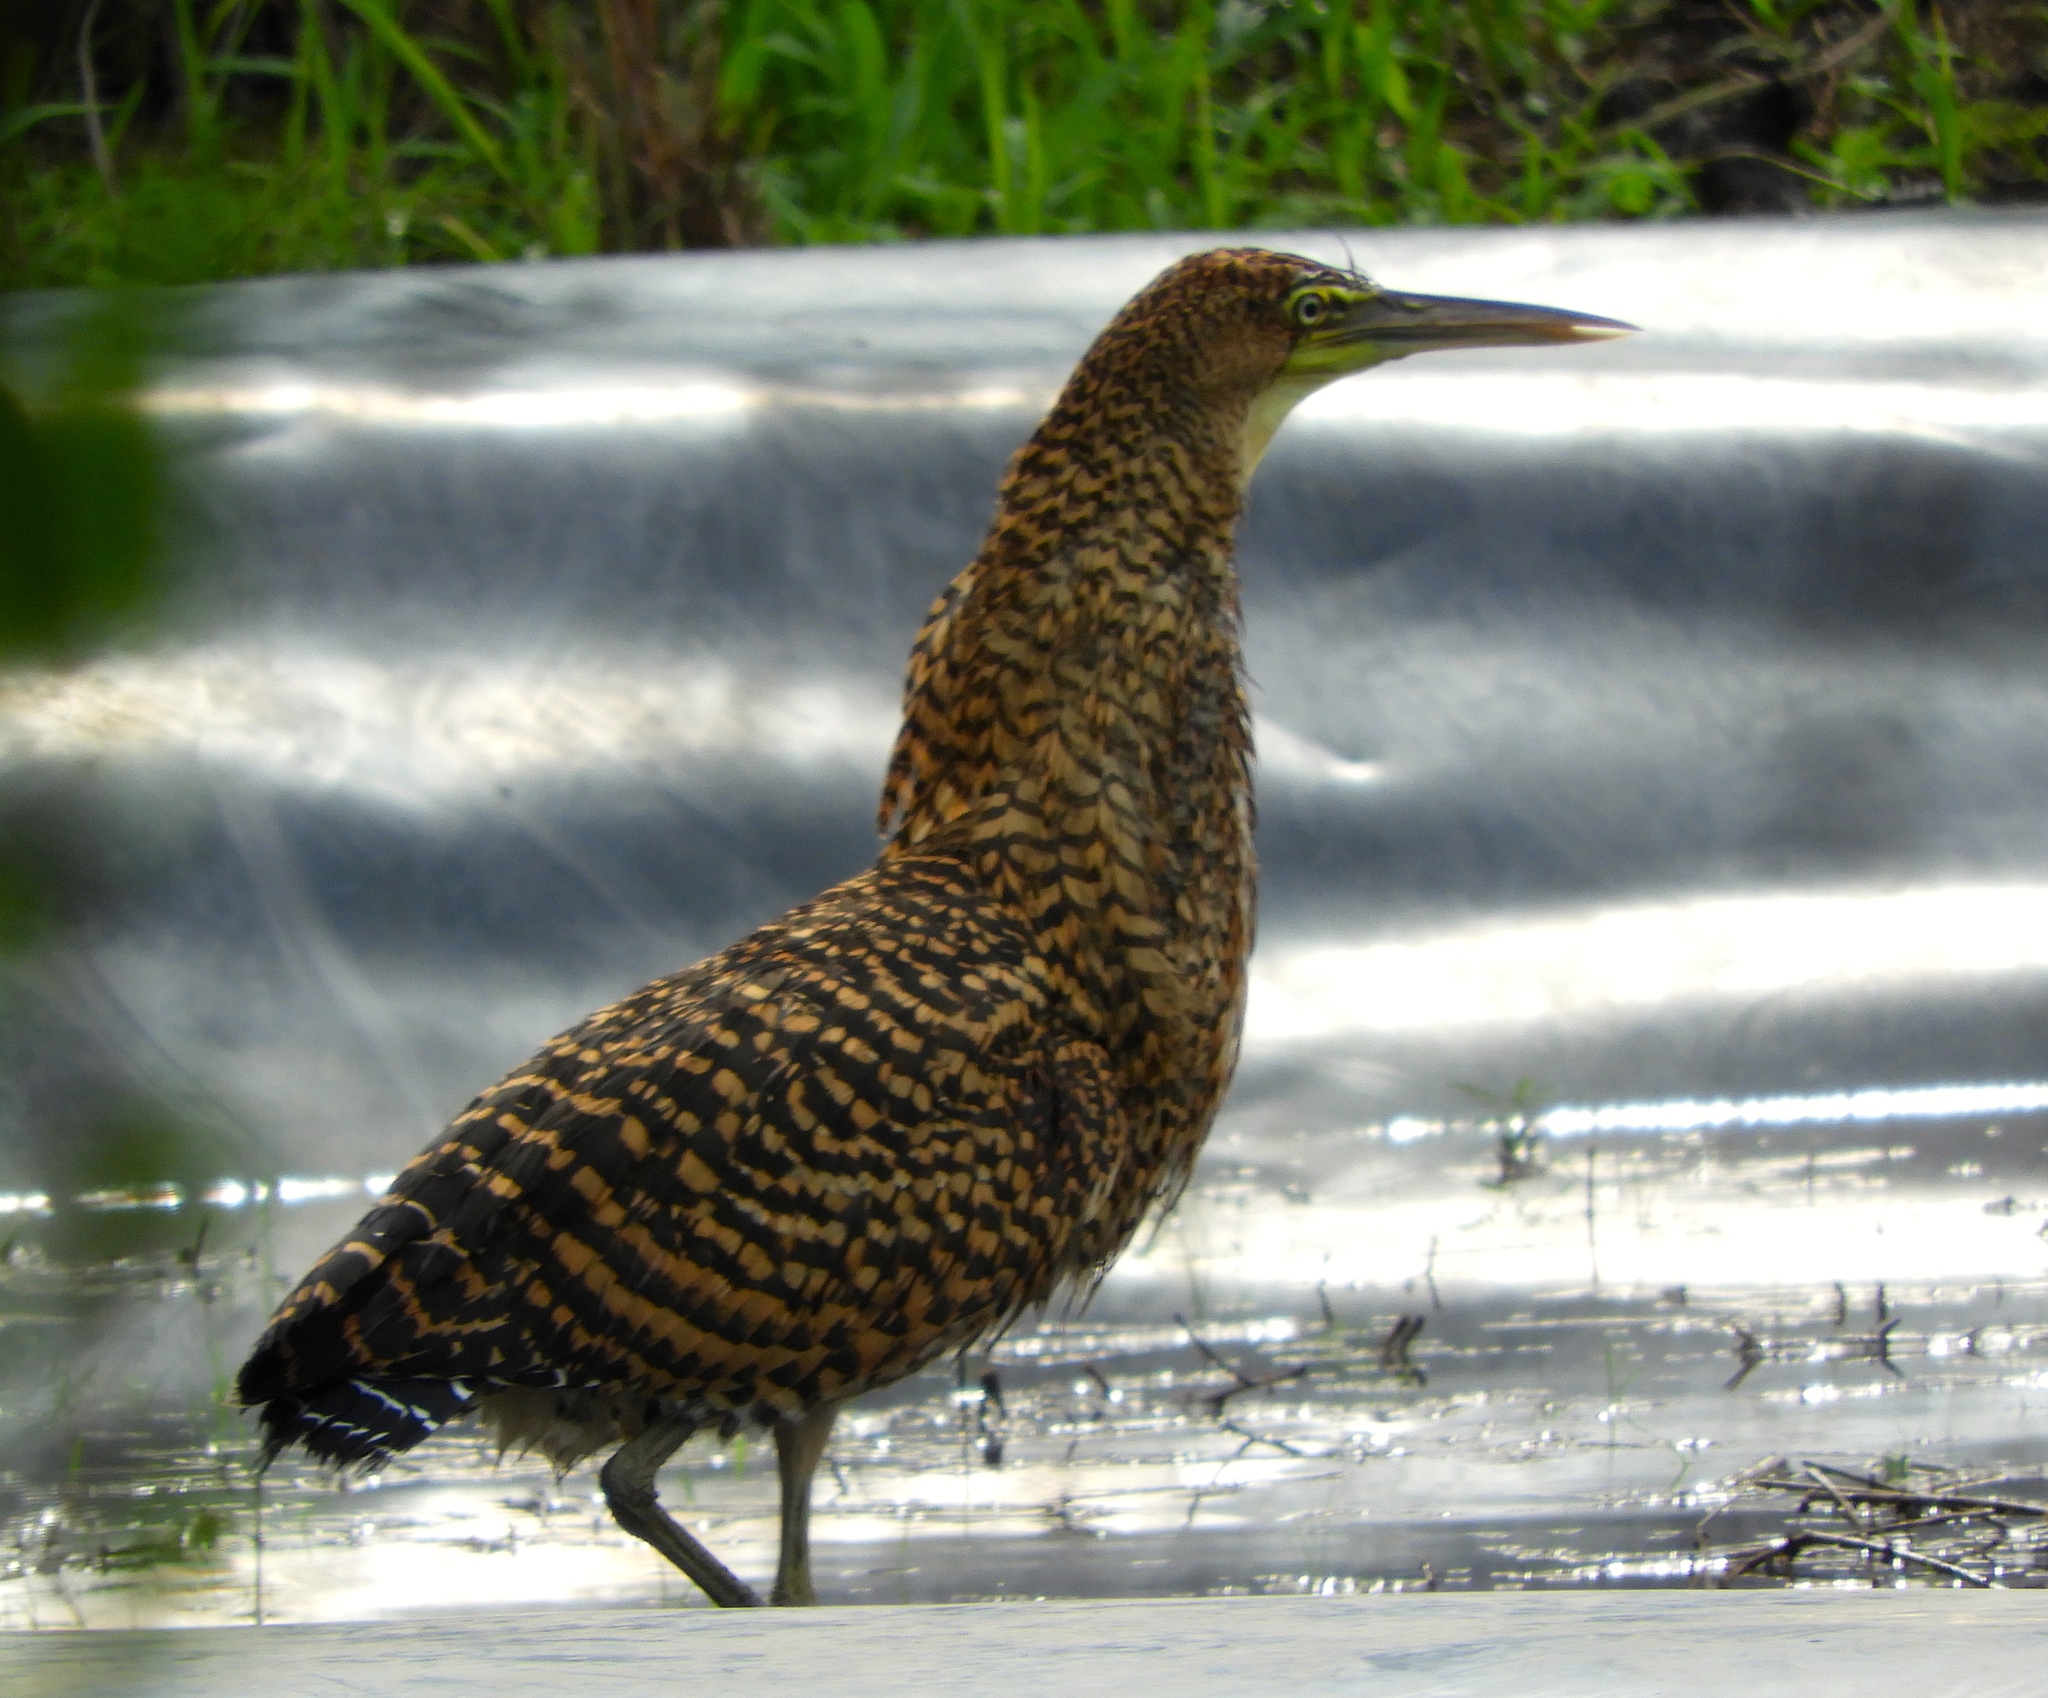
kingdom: Animalia
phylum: Chordata
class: Aves
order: Pelecaniformes
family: Ardeidae
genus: Tigrisoma
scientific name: Tigrisoma mexicanum
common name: Bare-throated tiger-heron
